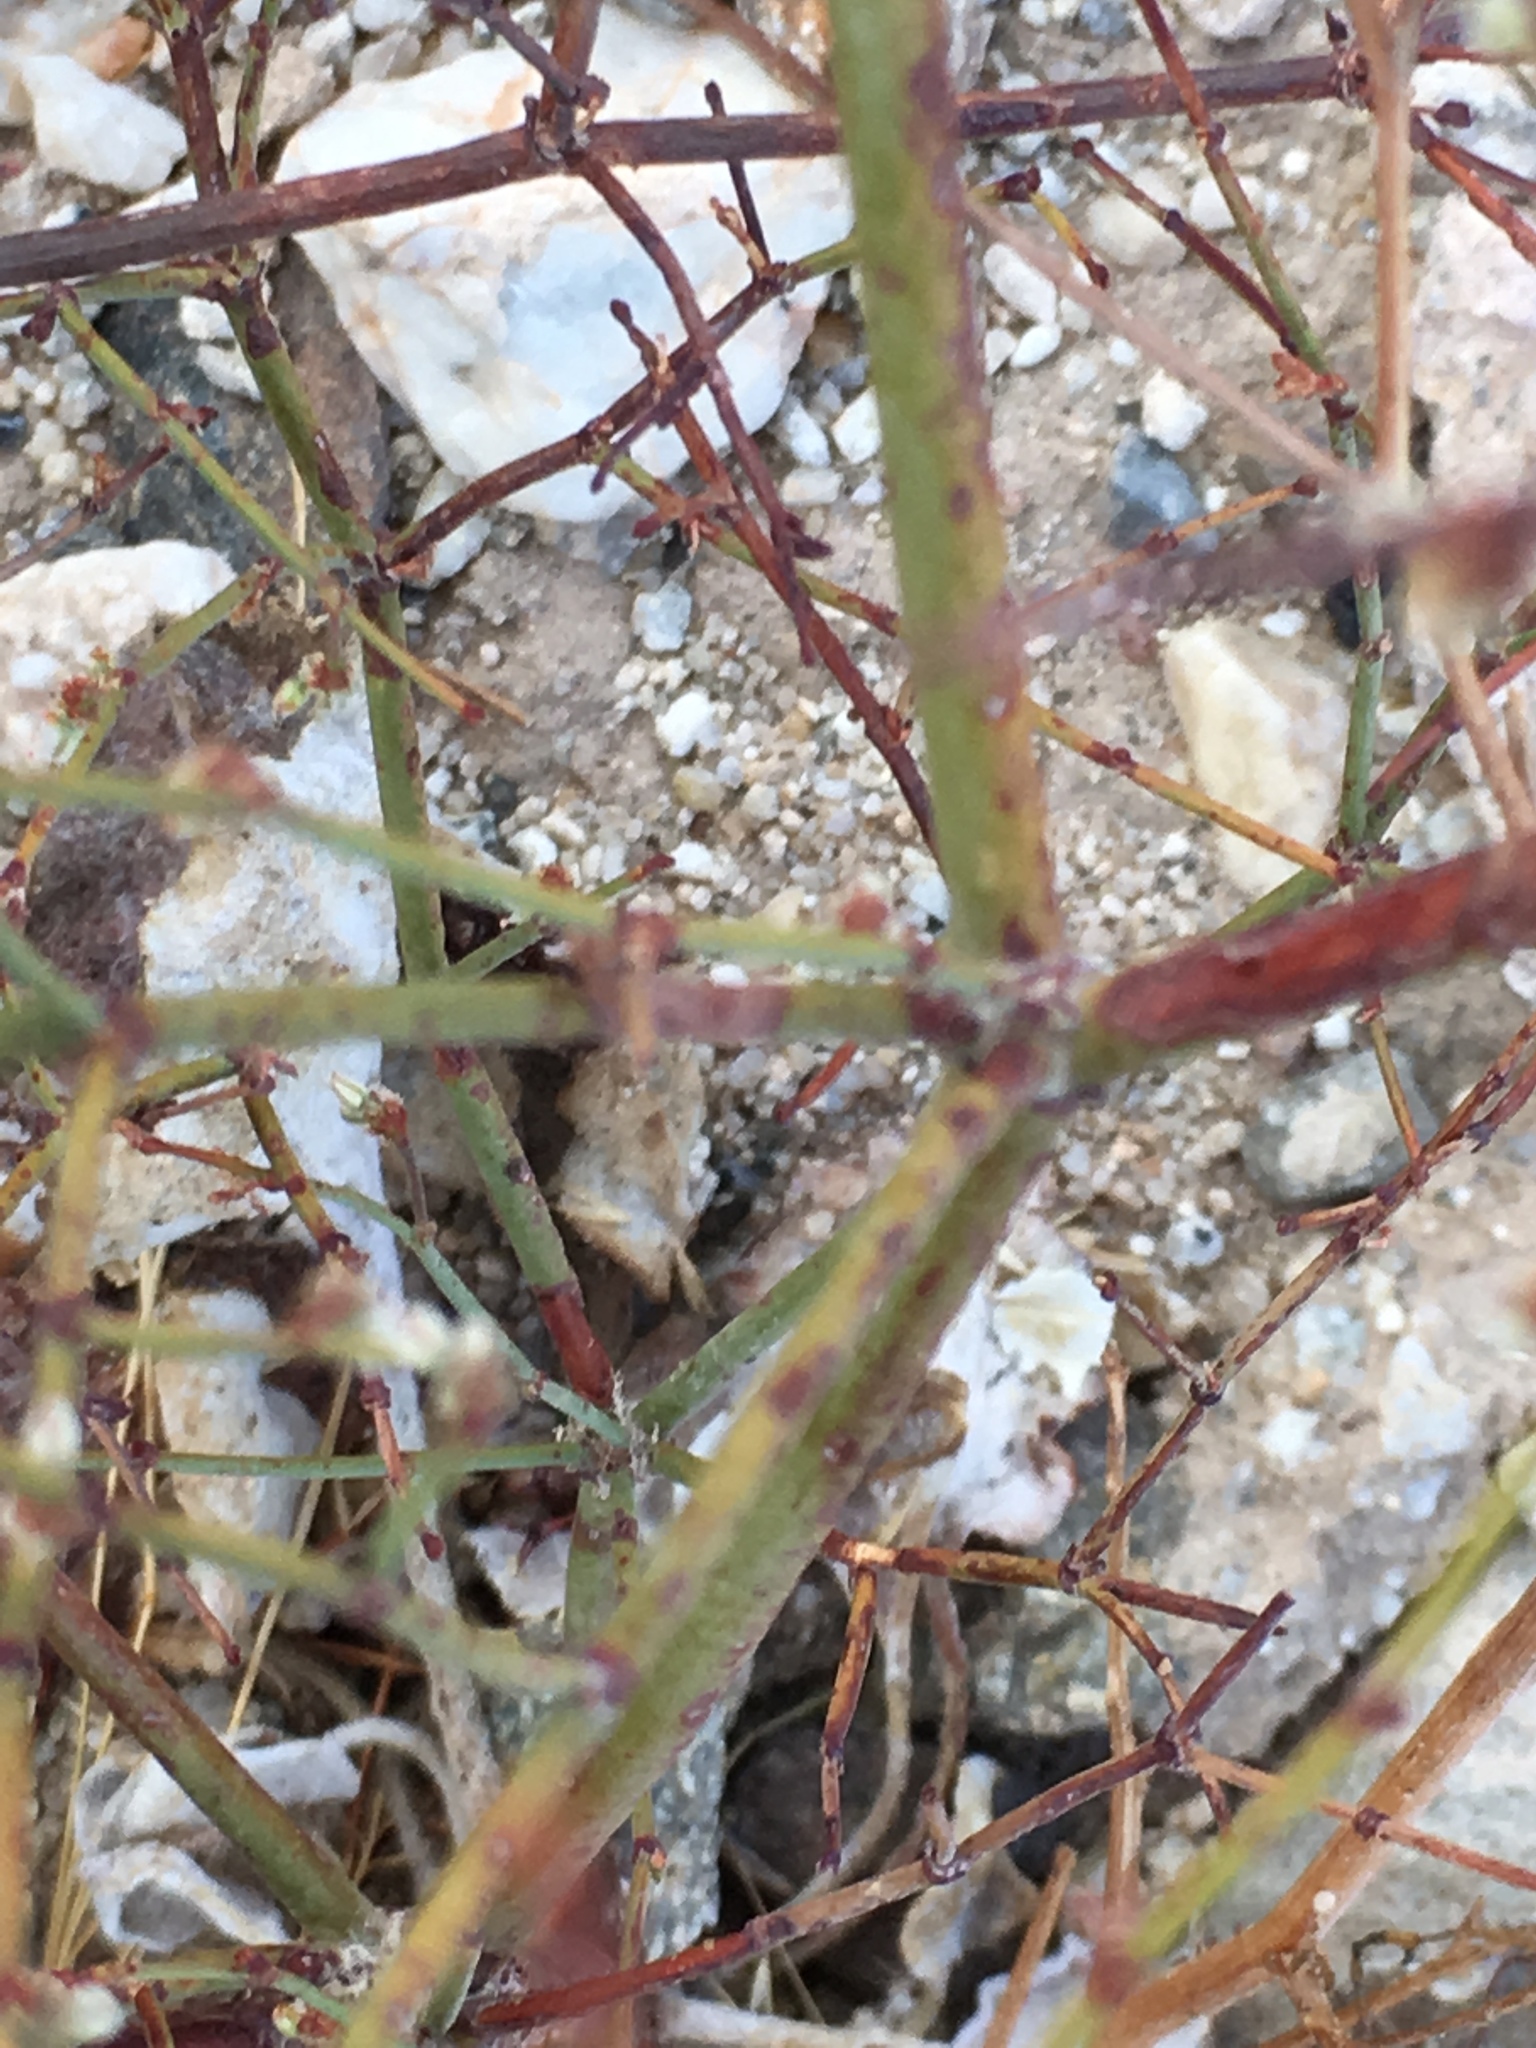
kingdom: Plantae
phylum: Tracheophyta
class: Magnoliopsida
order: Caryophyllales
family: Polygonaceae
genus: Eriogonum
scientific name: Eriogonum deflexum
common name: Skeleton-weed
